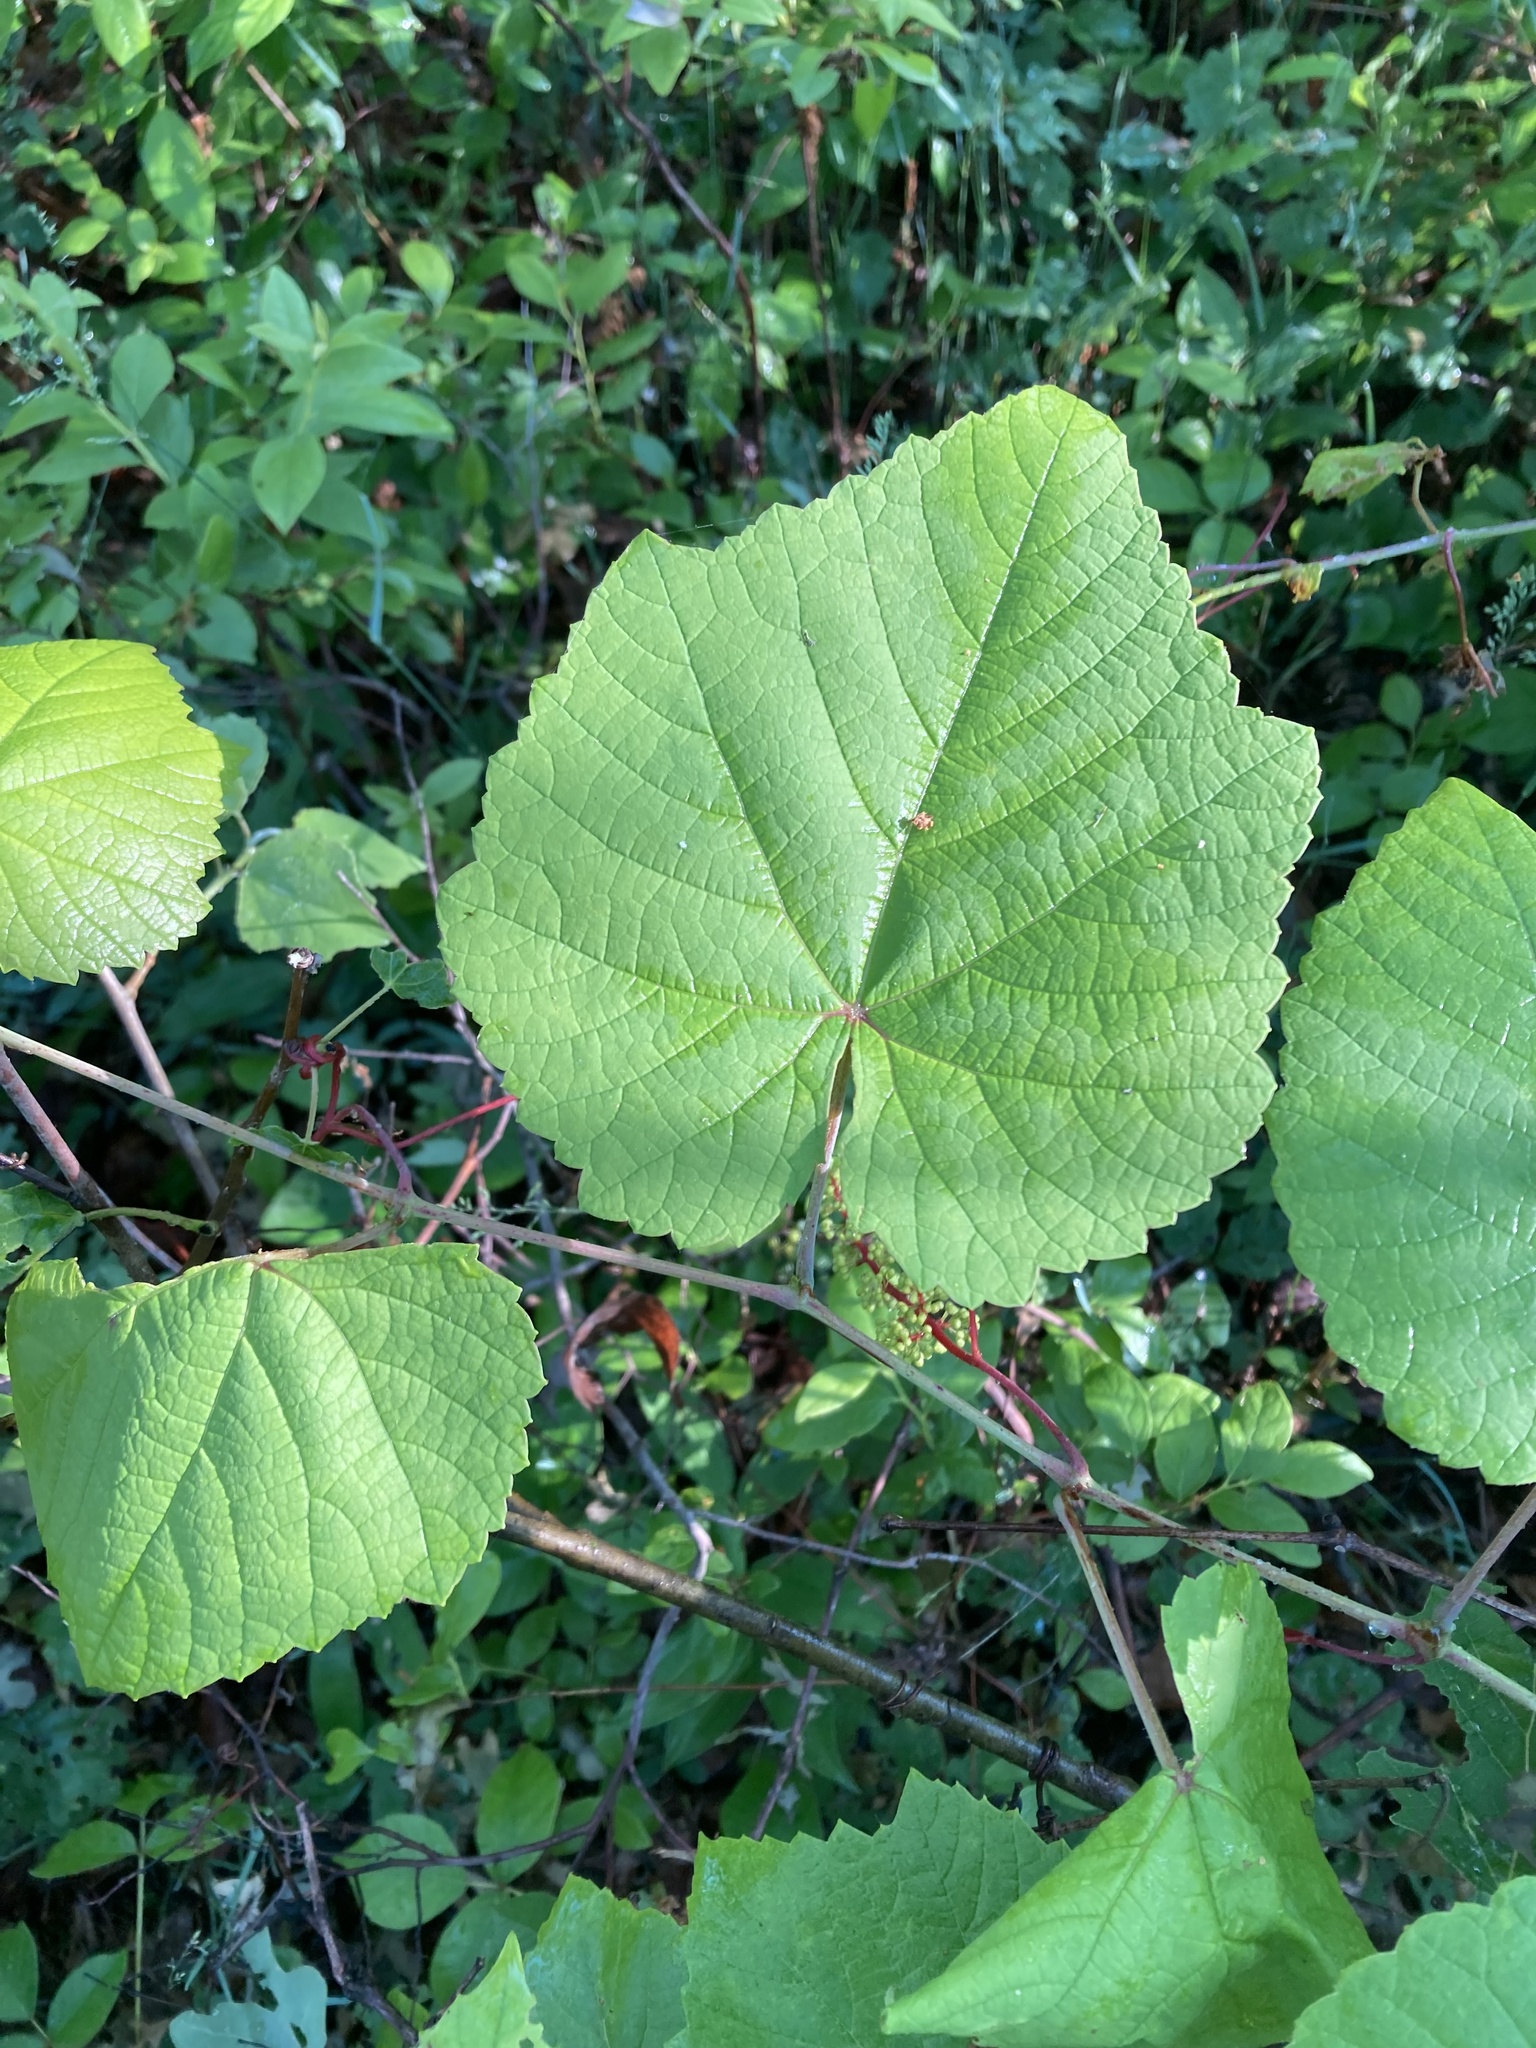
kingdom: Plantae
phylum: Tracheophyta
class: Magnoliopsida
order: Vitales
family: Vitaceae
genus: Vitis
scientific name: Vitis aestivalis
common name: Pigeon grape
